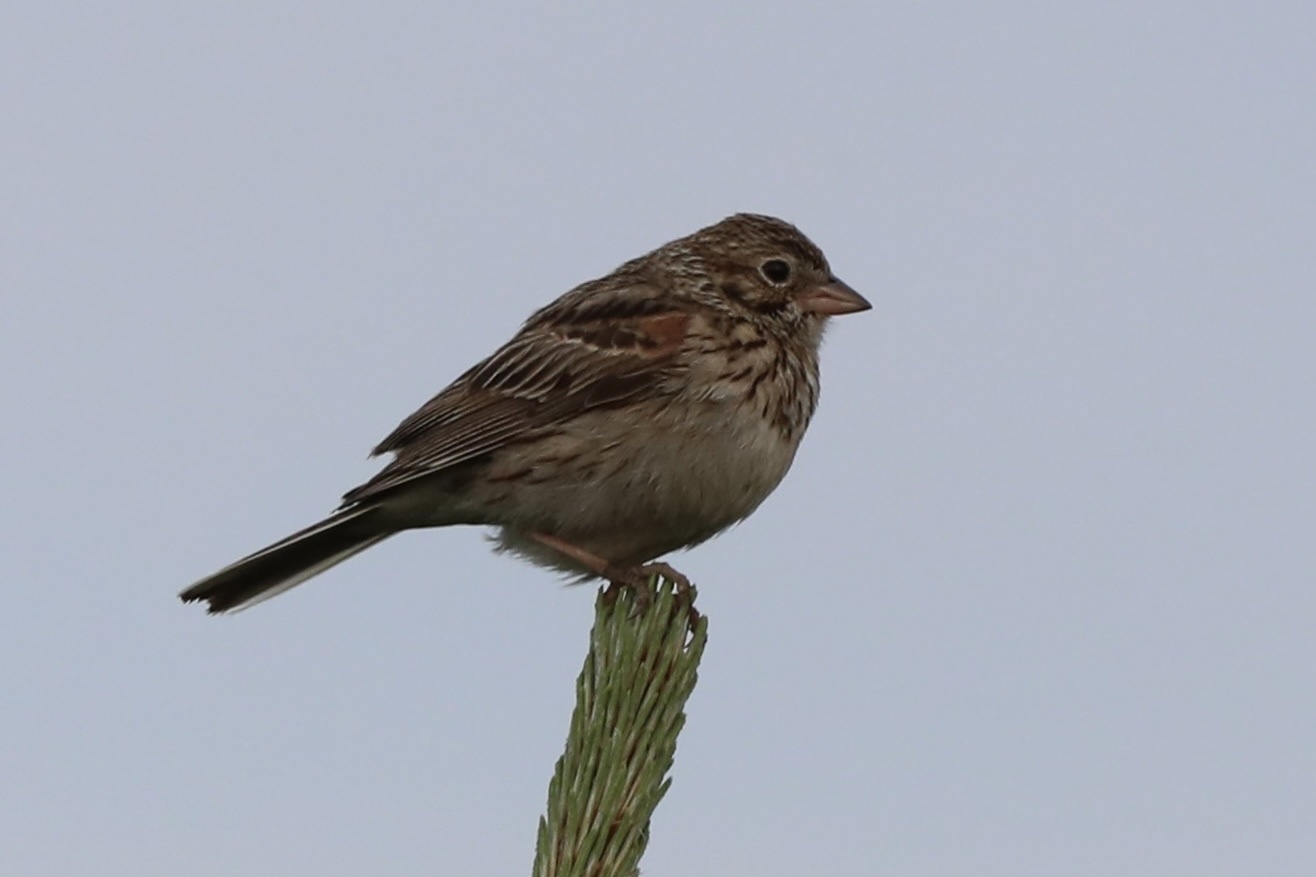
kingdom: Animalia
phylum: Chordata
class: Aves
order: Passeriformes
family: Passerellidae
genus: Pooecetes
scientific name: Pooecetes gramineus
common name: Vesper sparrow
